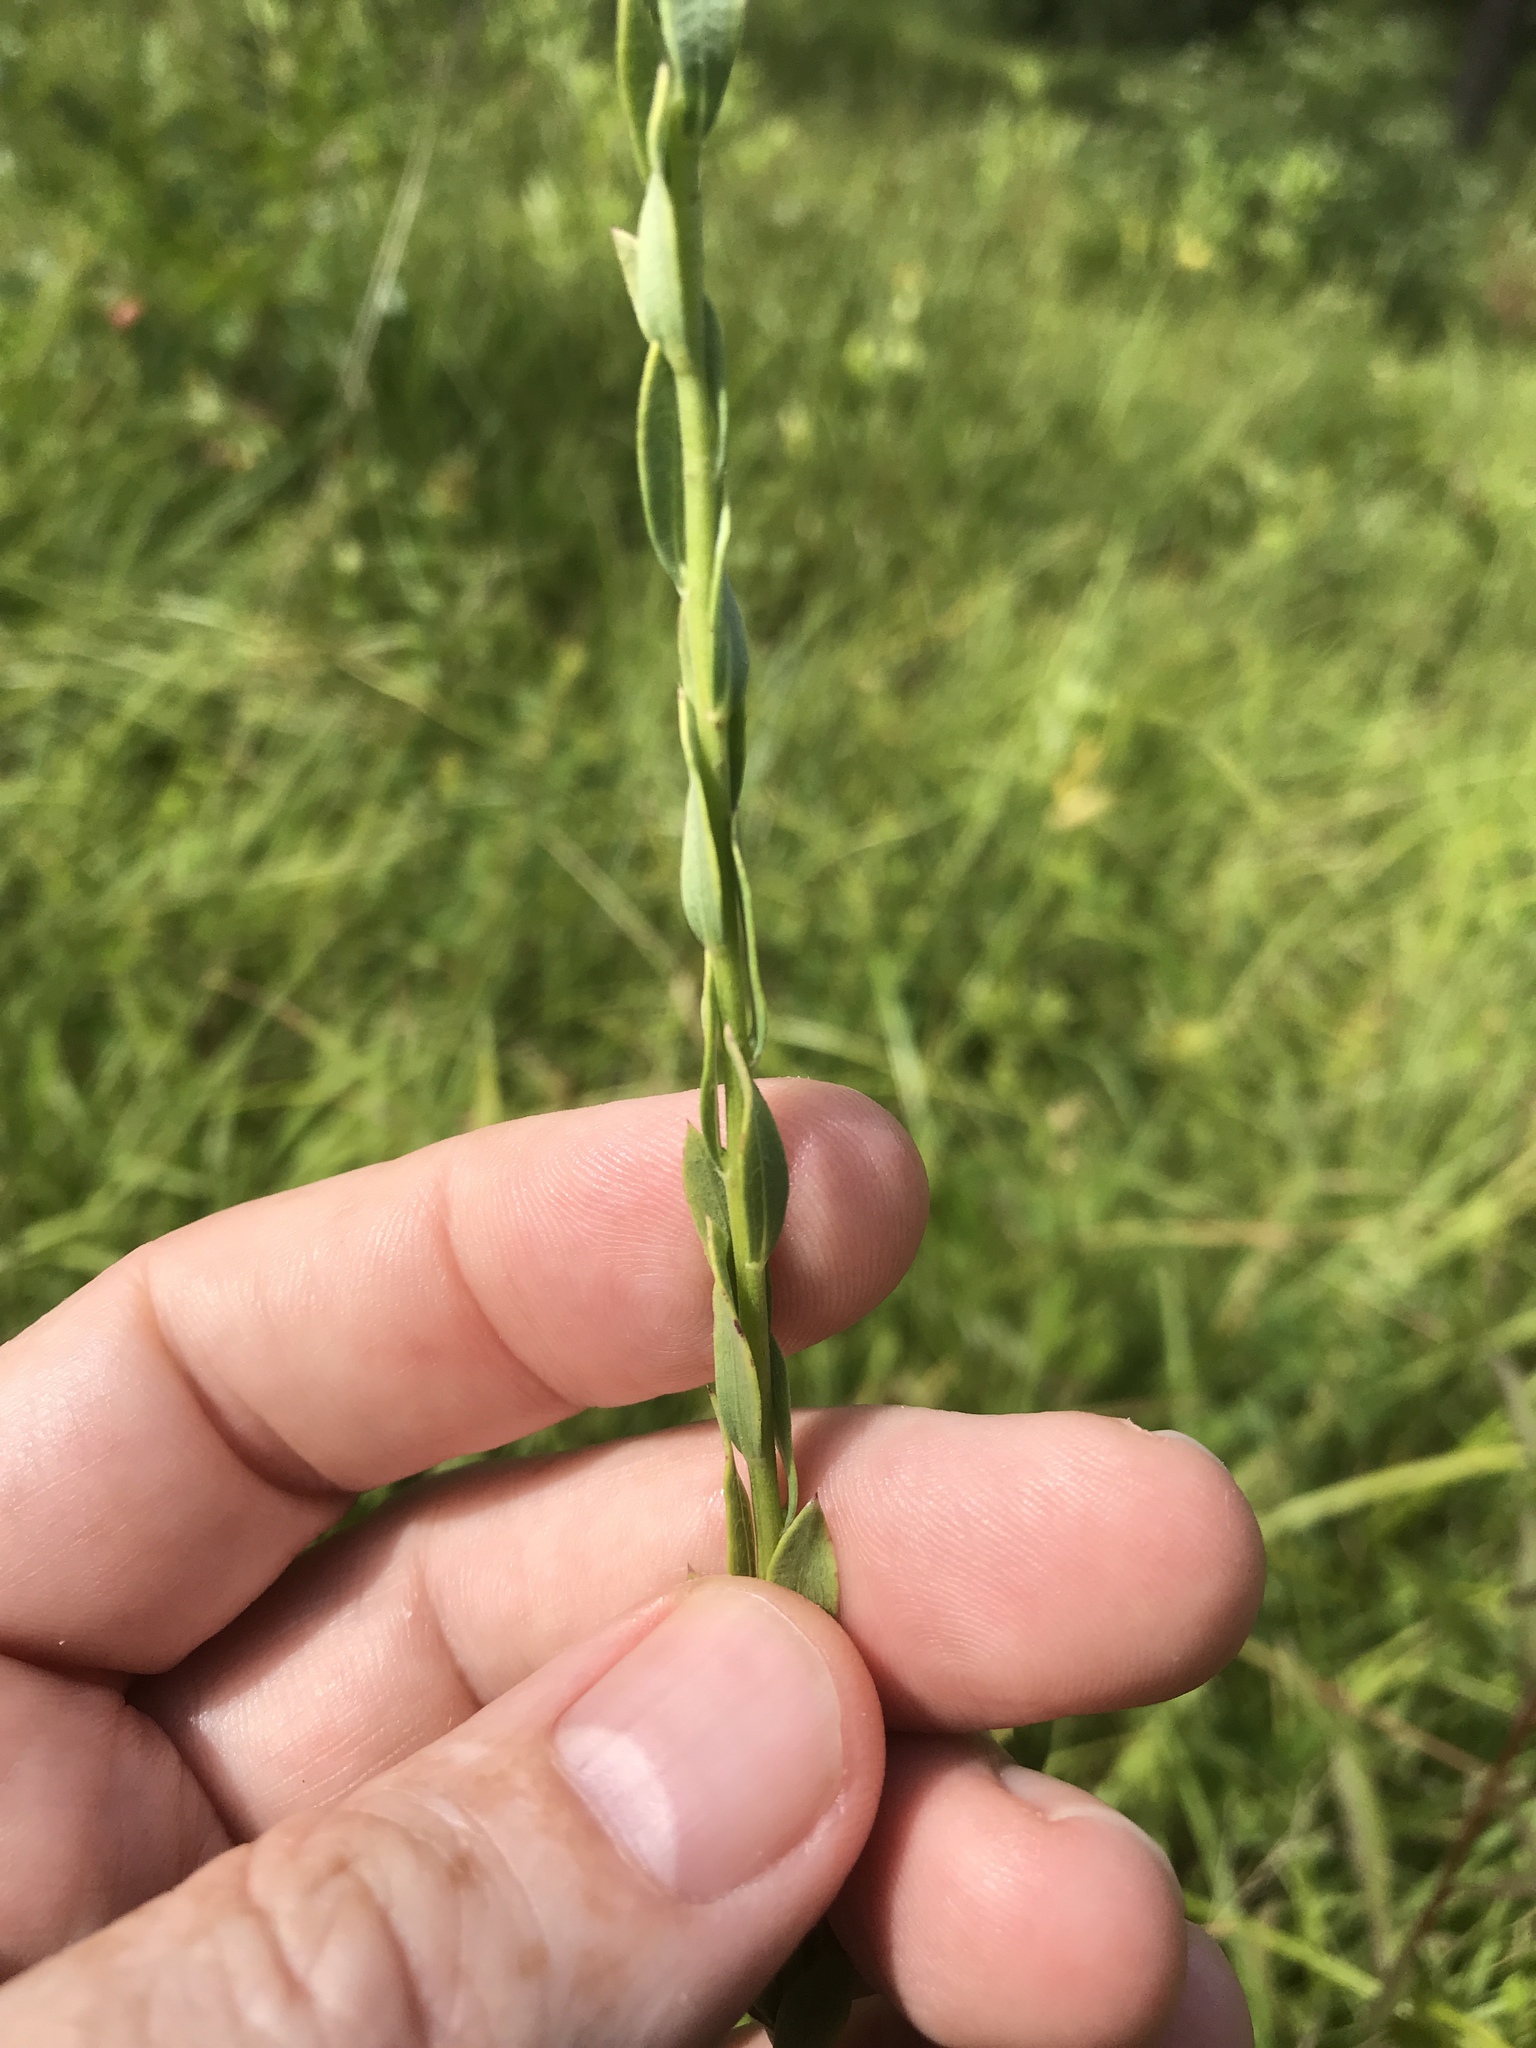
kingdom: Plantae
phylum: Tracheophyta
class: Magnoliopsida
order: Asterales
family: Asteraceae
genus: Symphyotrichum
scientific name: Symphyotrichum concolor
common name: Eastern silver aster
